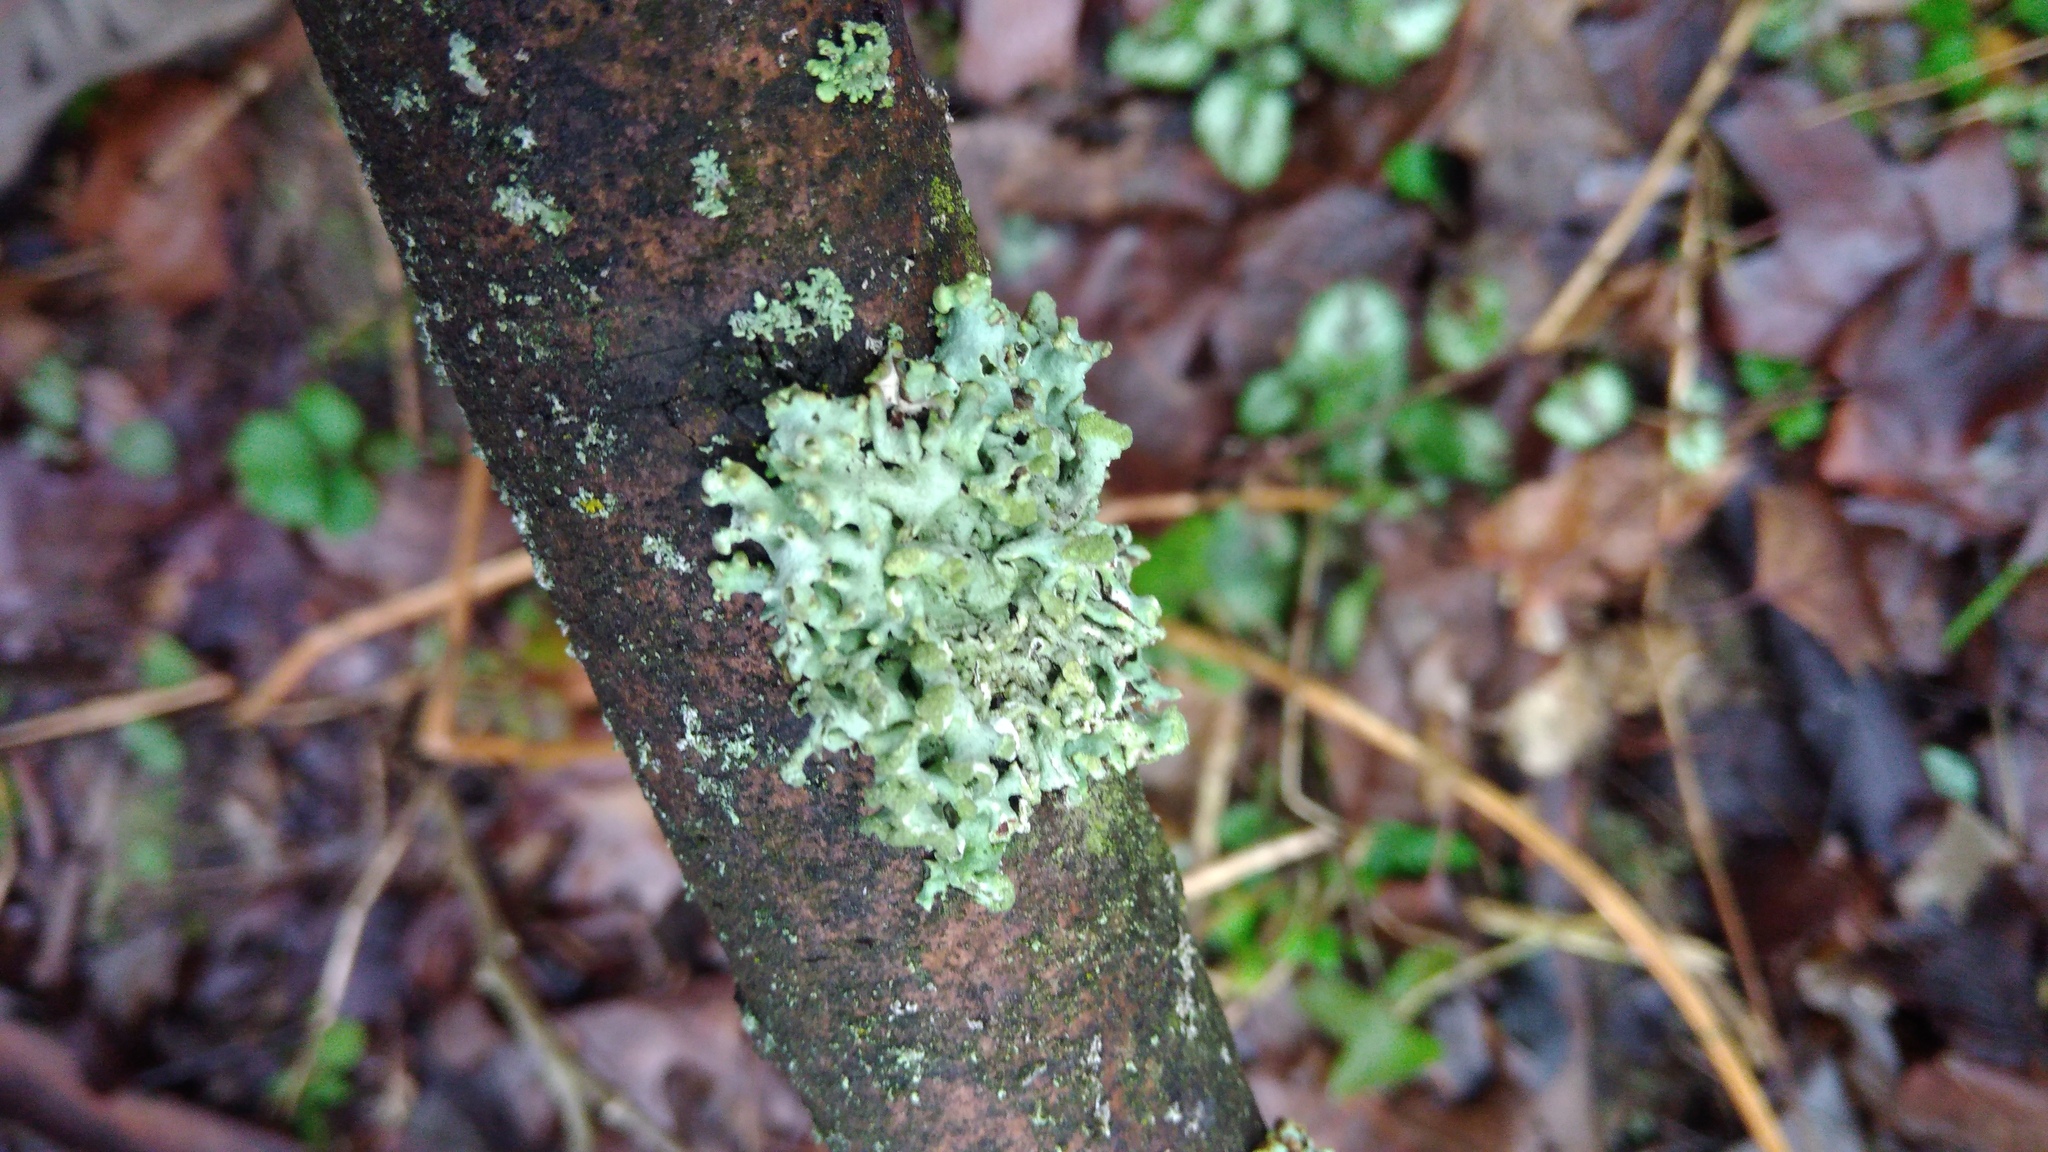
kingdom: Fungi
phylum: Ascomycota
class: Lecanoromycetes
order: Lecanorales
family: Parmeliaceae
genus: Hypogymnia
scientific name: Hypogymnia tubulosa
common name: Powder-headed tube lichen
